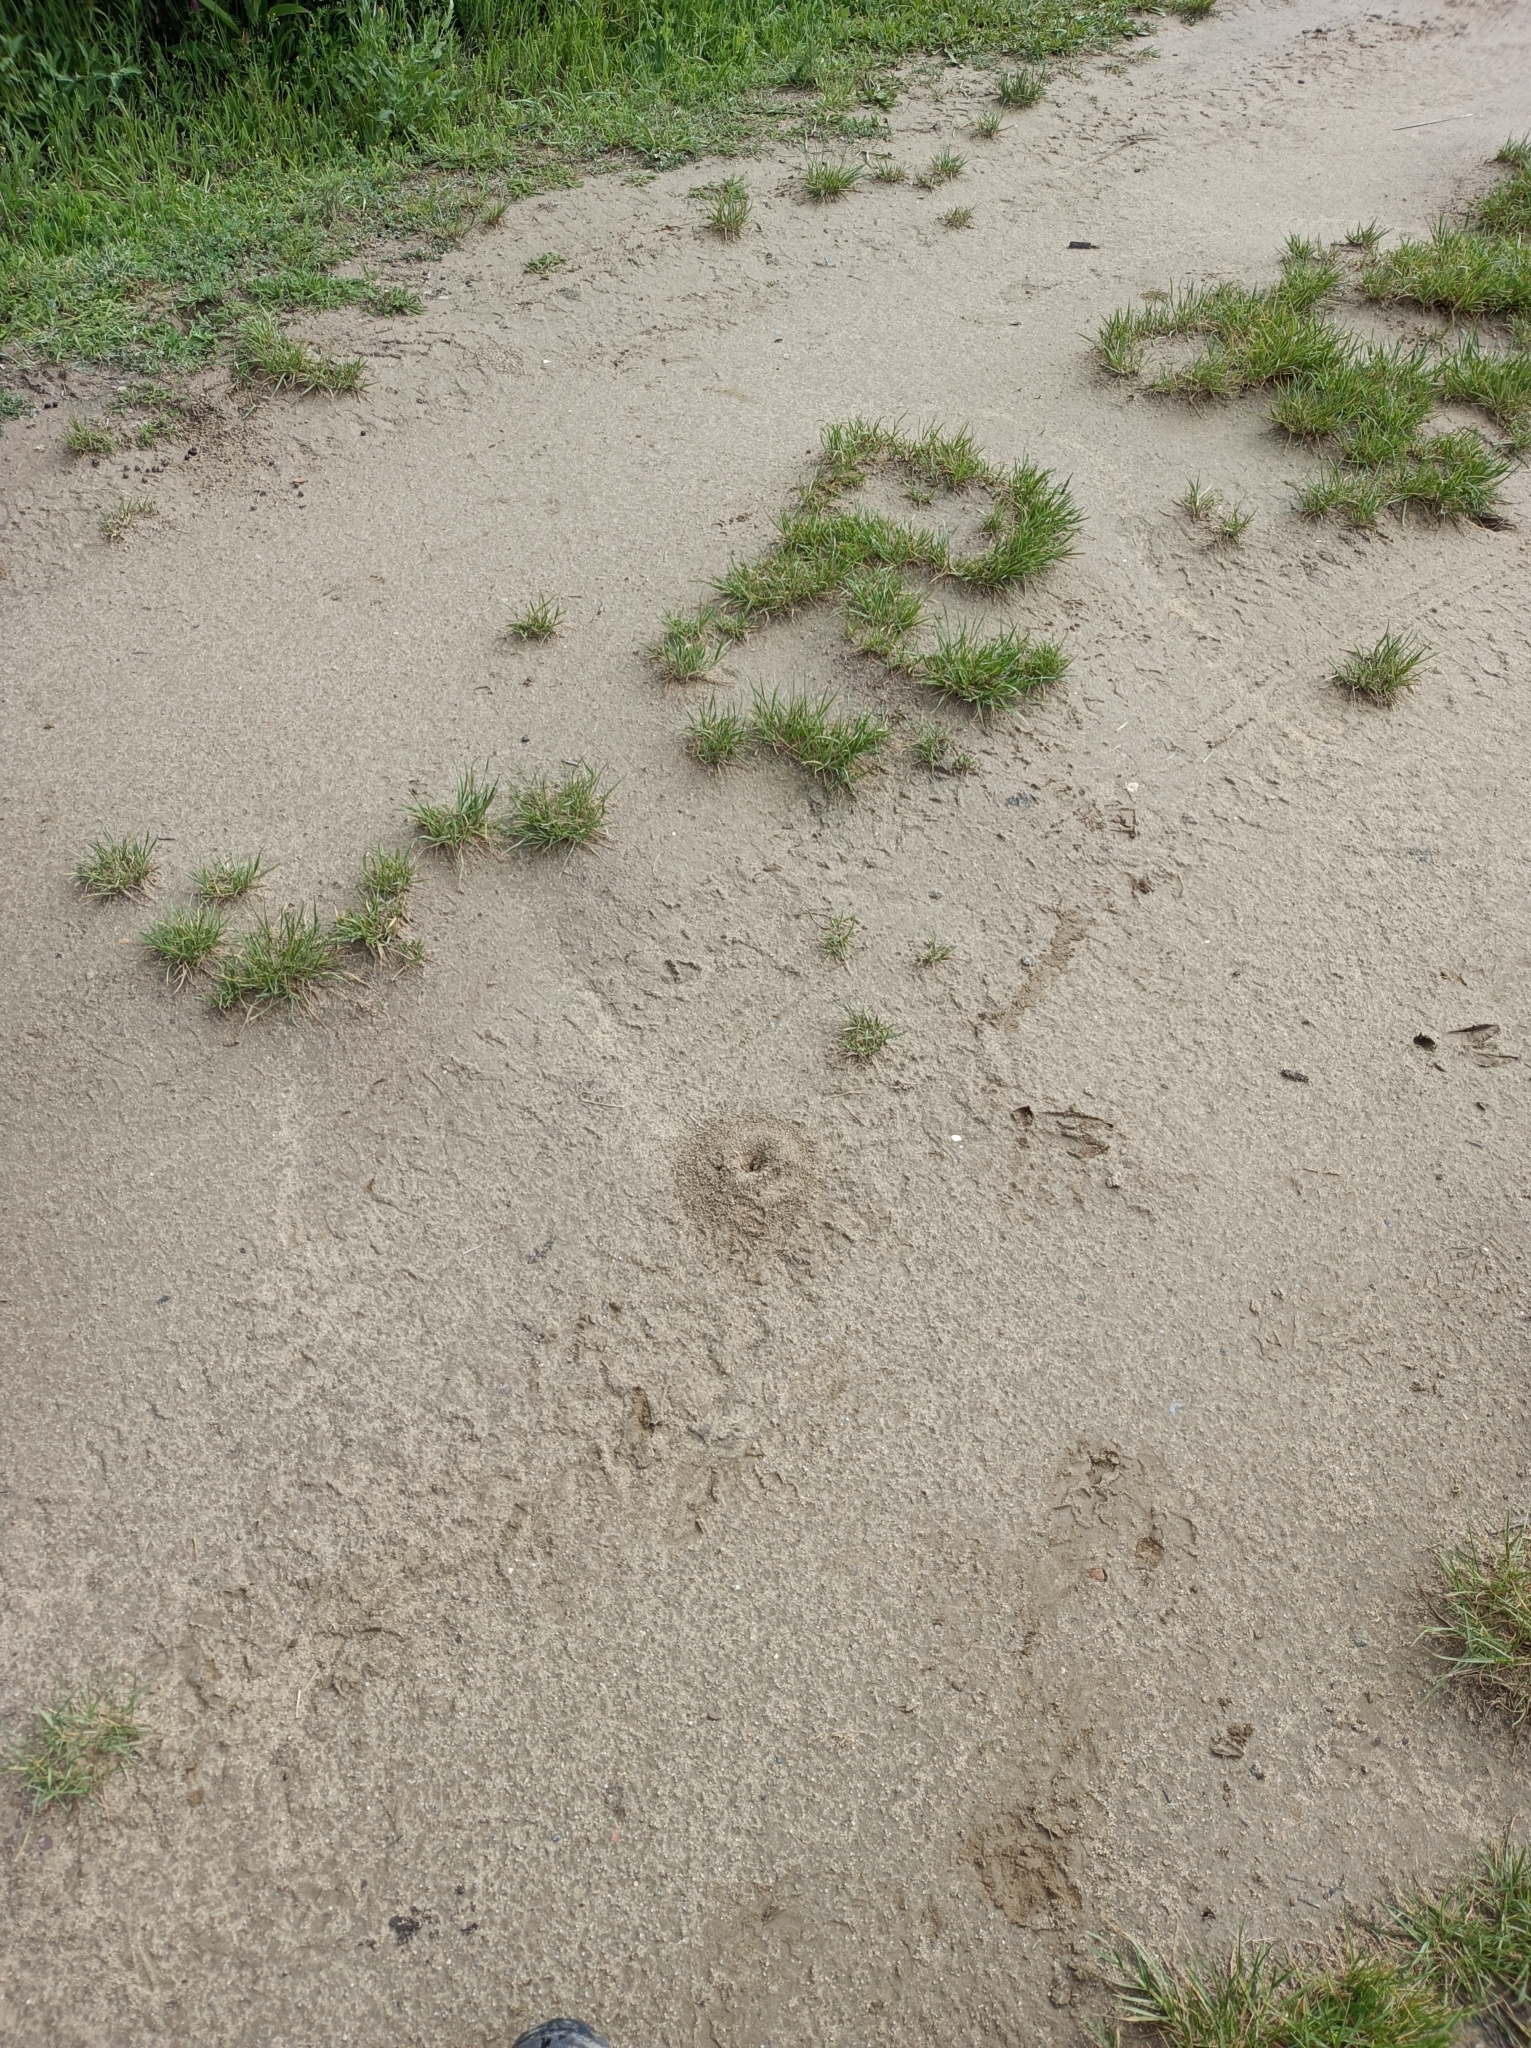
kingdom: Animalia
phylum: Arthropoda
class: Insecta
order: Hymenoptera
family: Formicidae
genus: Messor
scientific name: Messor structor
